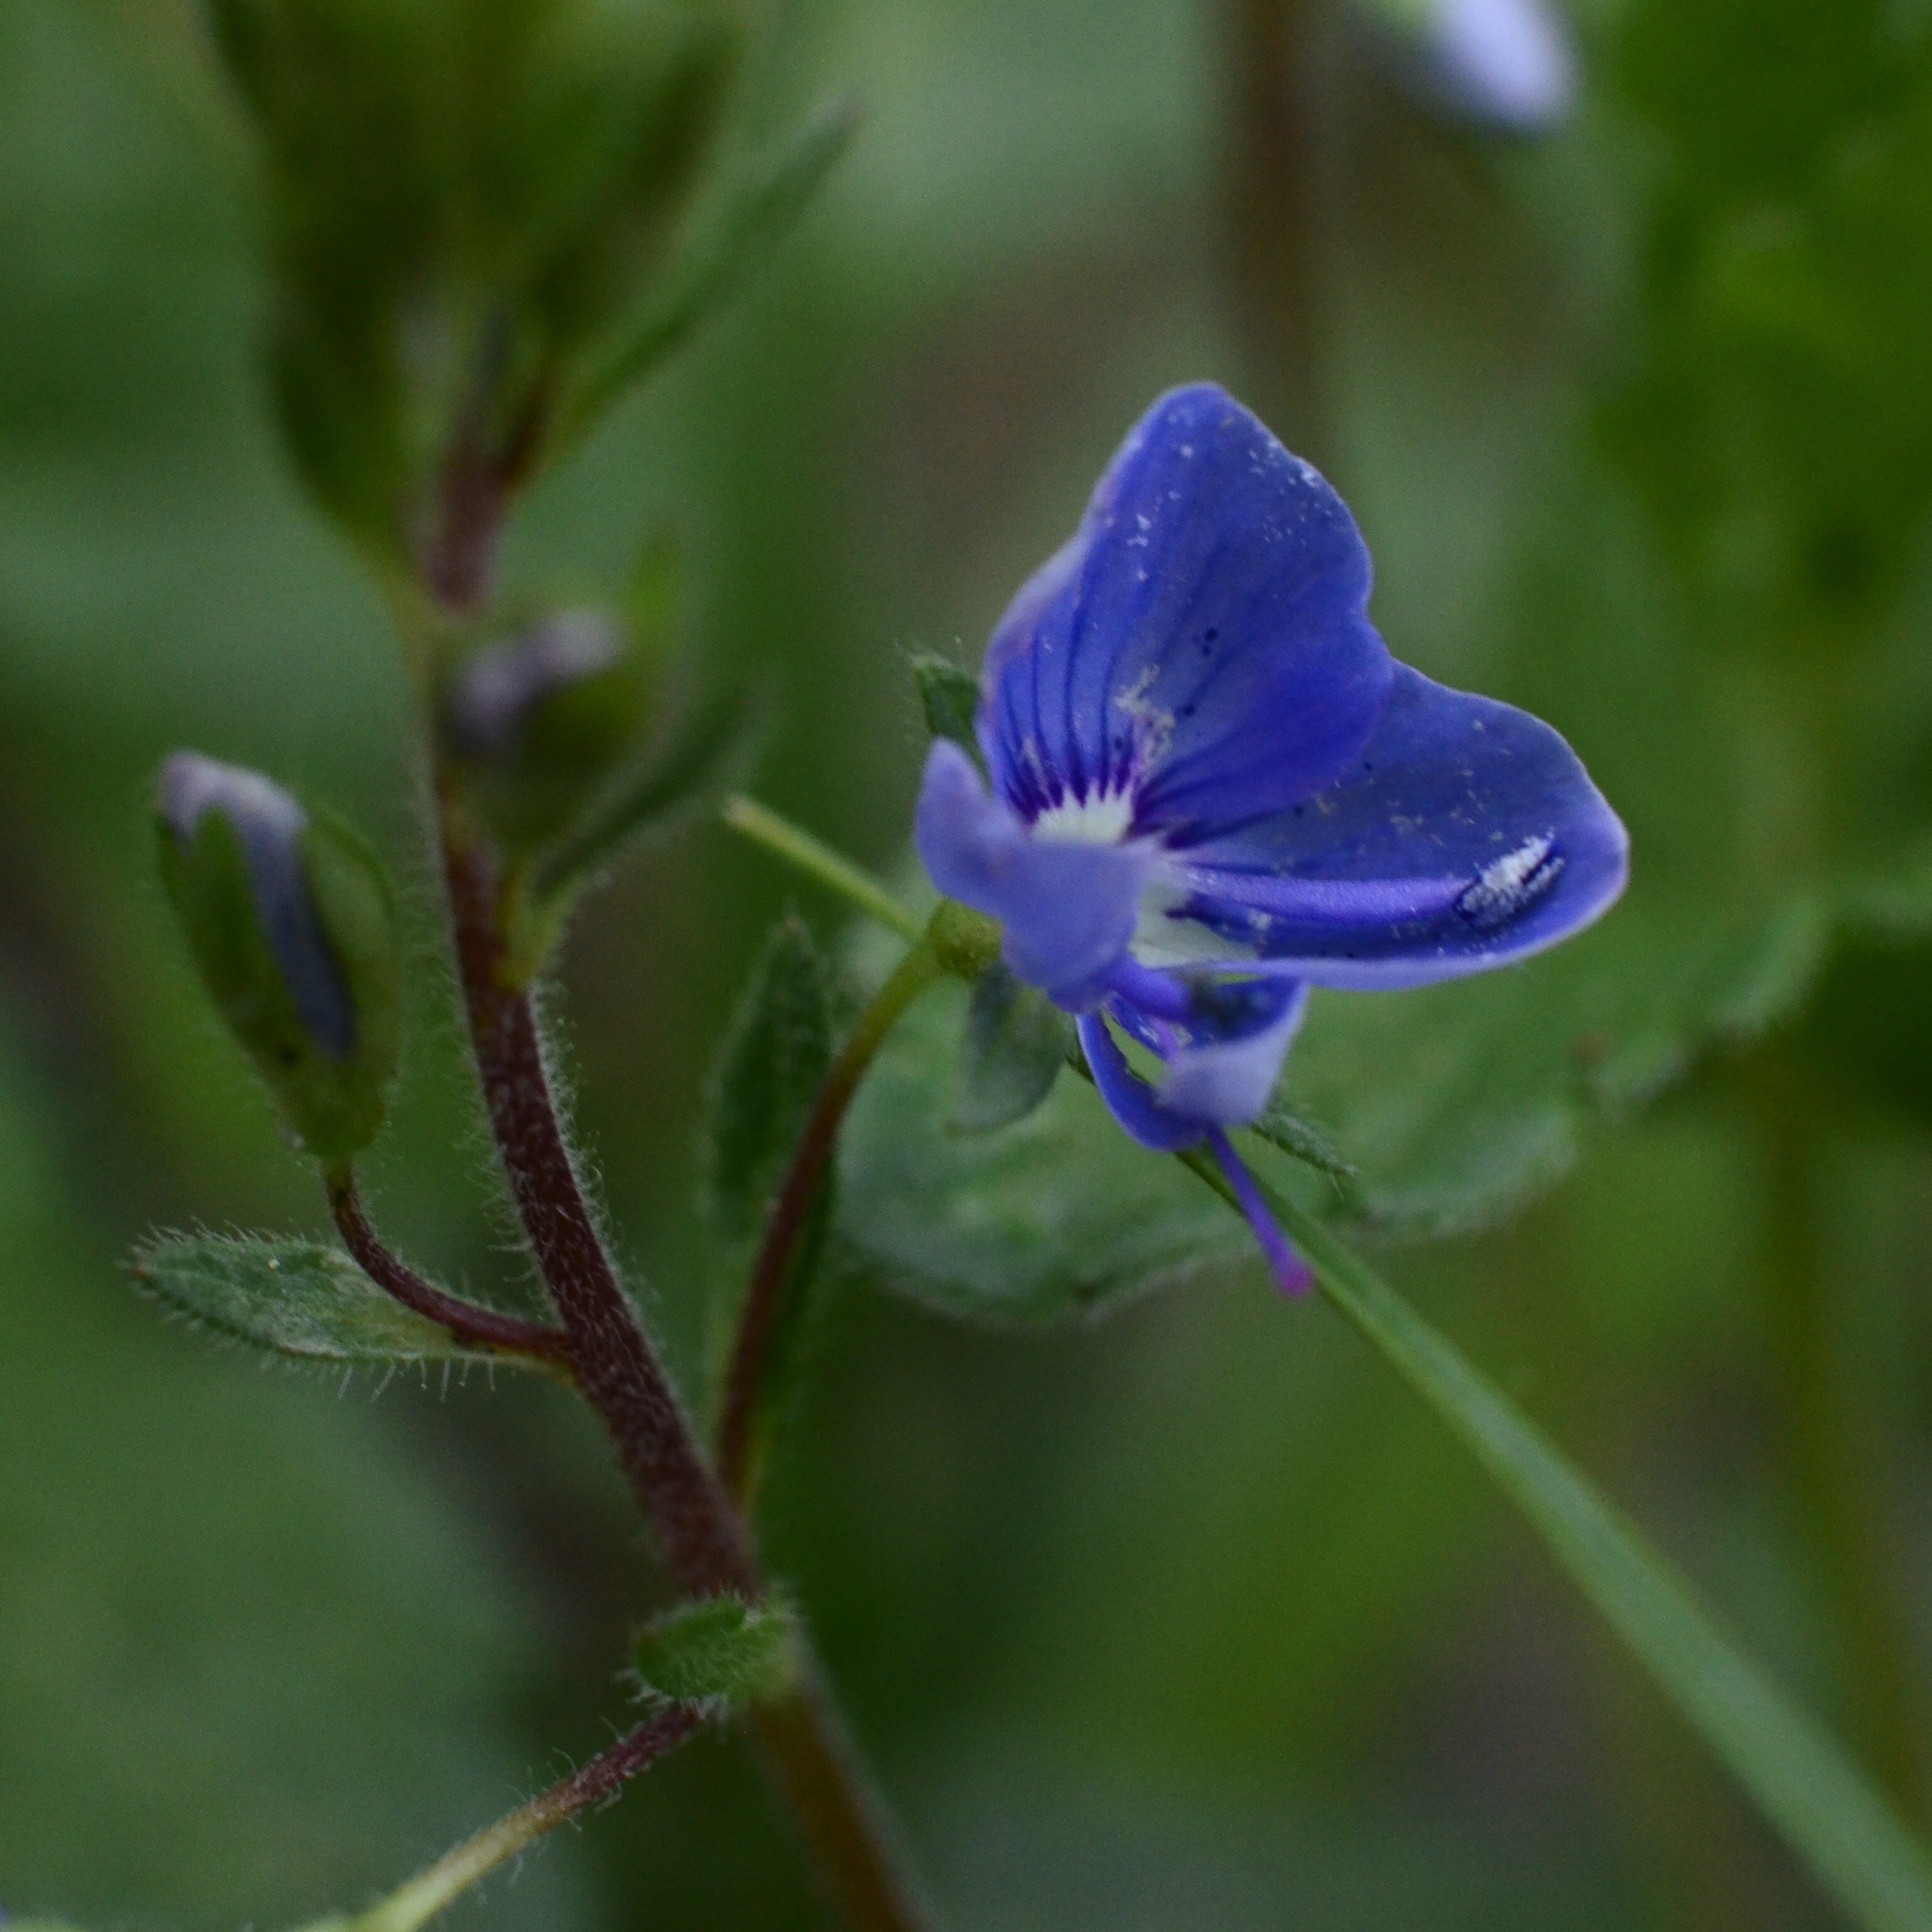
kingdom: Plantae
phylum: Tracheophyta
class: Magnoliopsida
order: Lamiales
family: Plantaginaceae
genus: Veronica
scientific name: Veronica chamaedrys
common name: Germander speedwell
